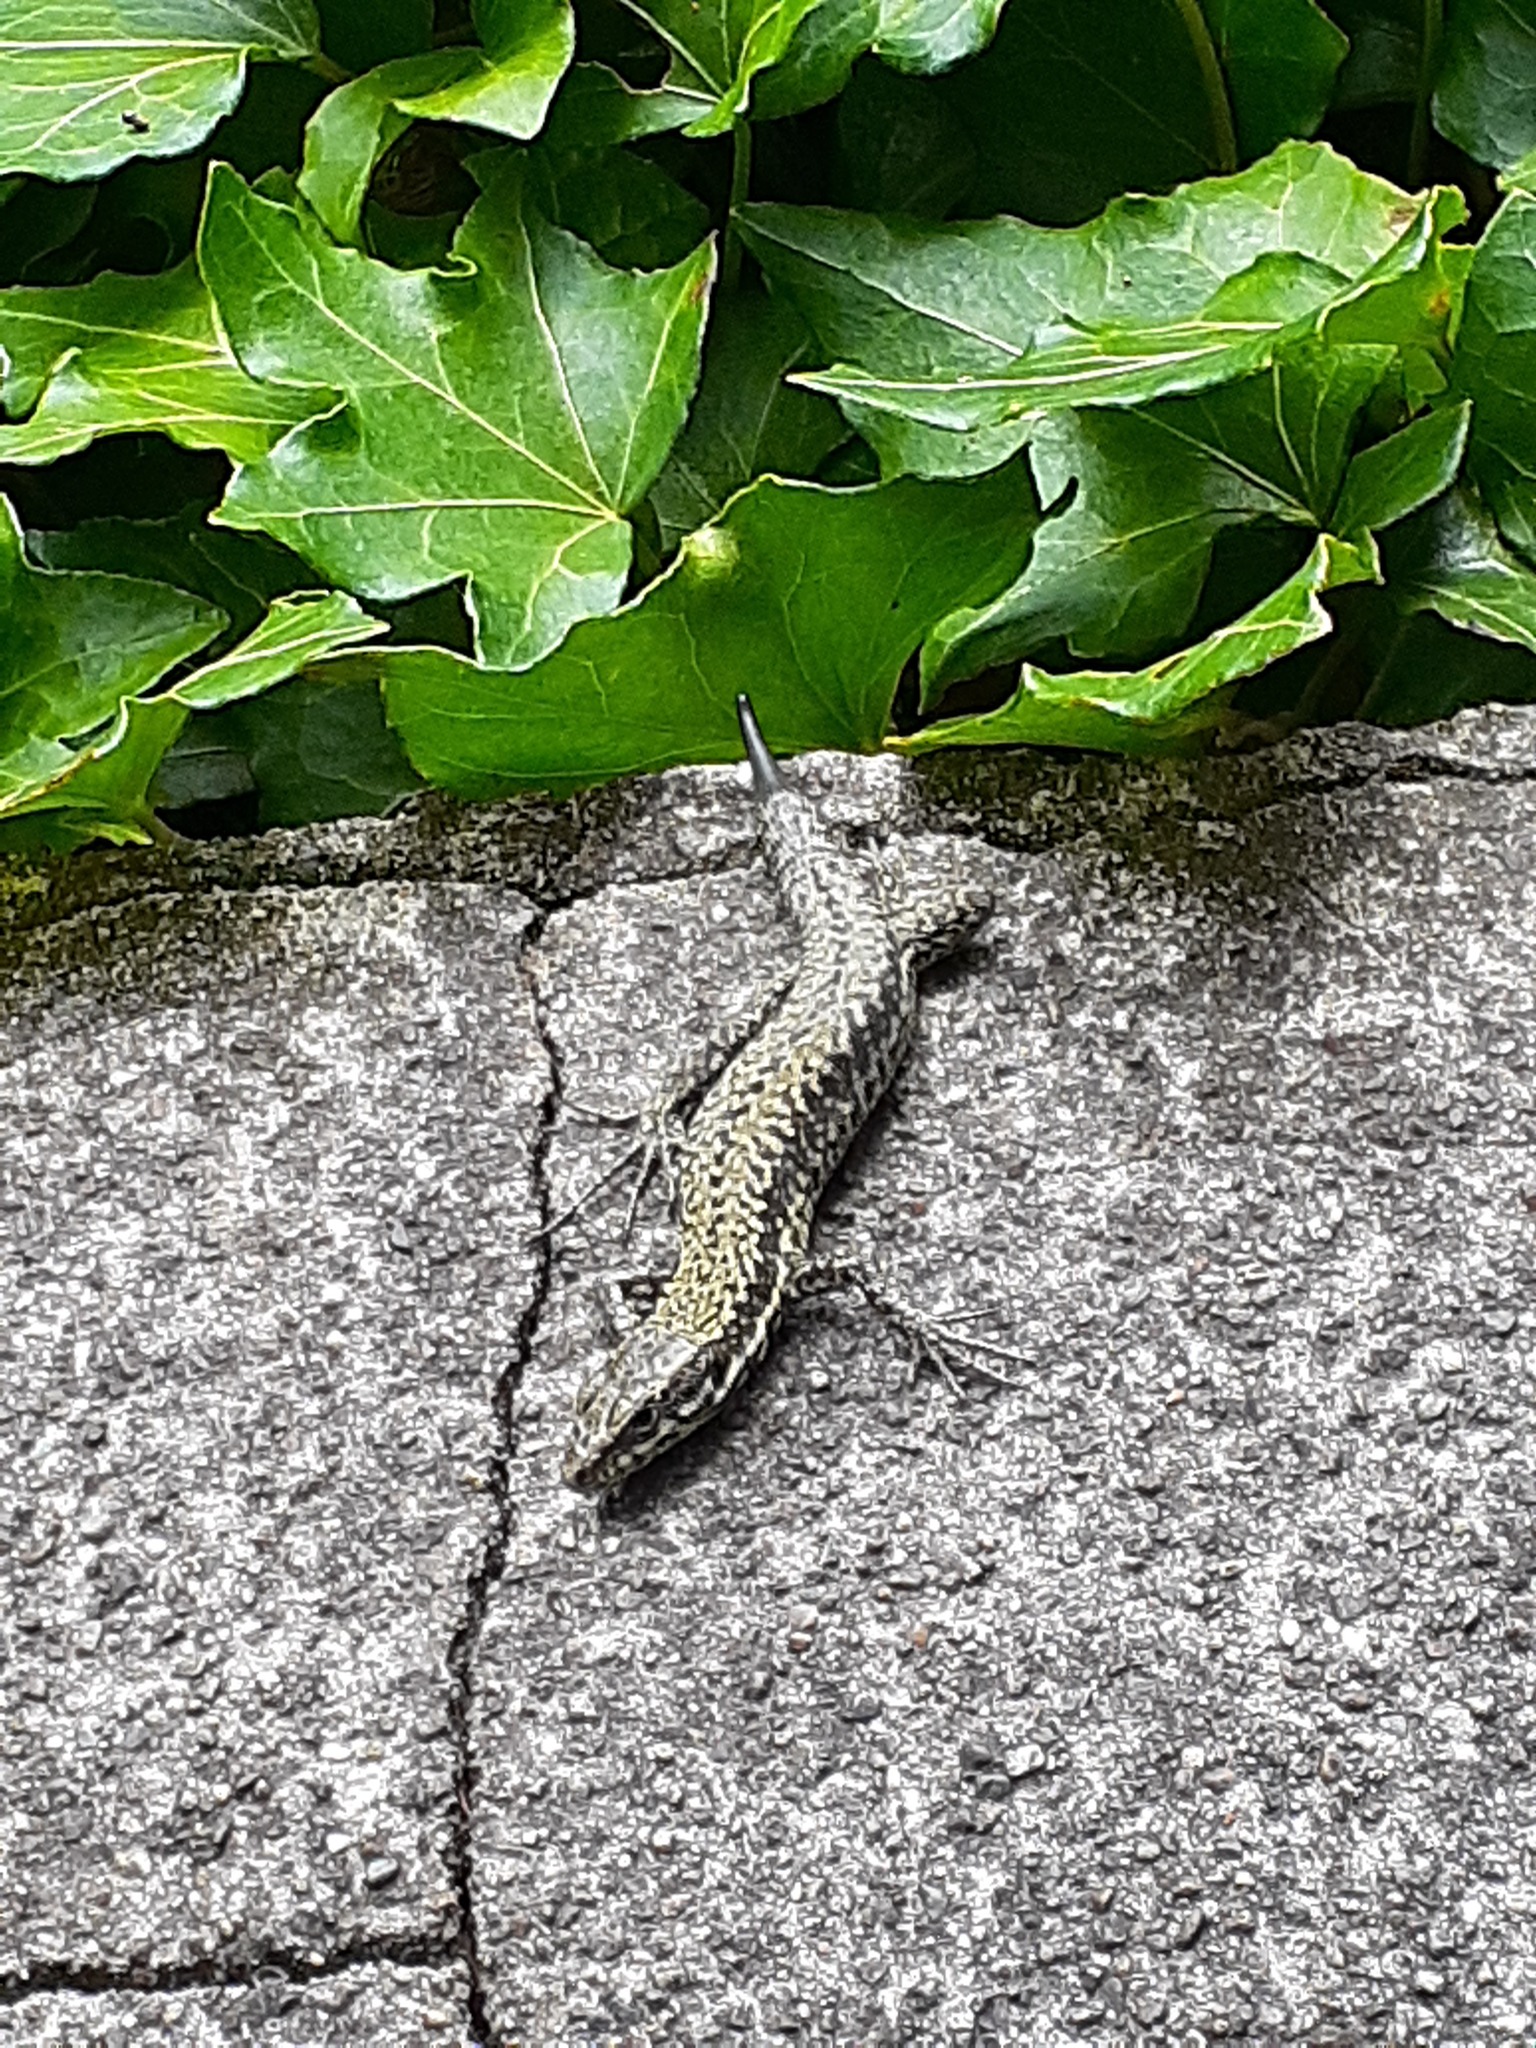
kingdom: Animalia
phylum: Chordata
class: Squamata
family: Lacertidae
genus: Podarcis
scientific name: Podarcis muralis
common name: Common wall lizard
